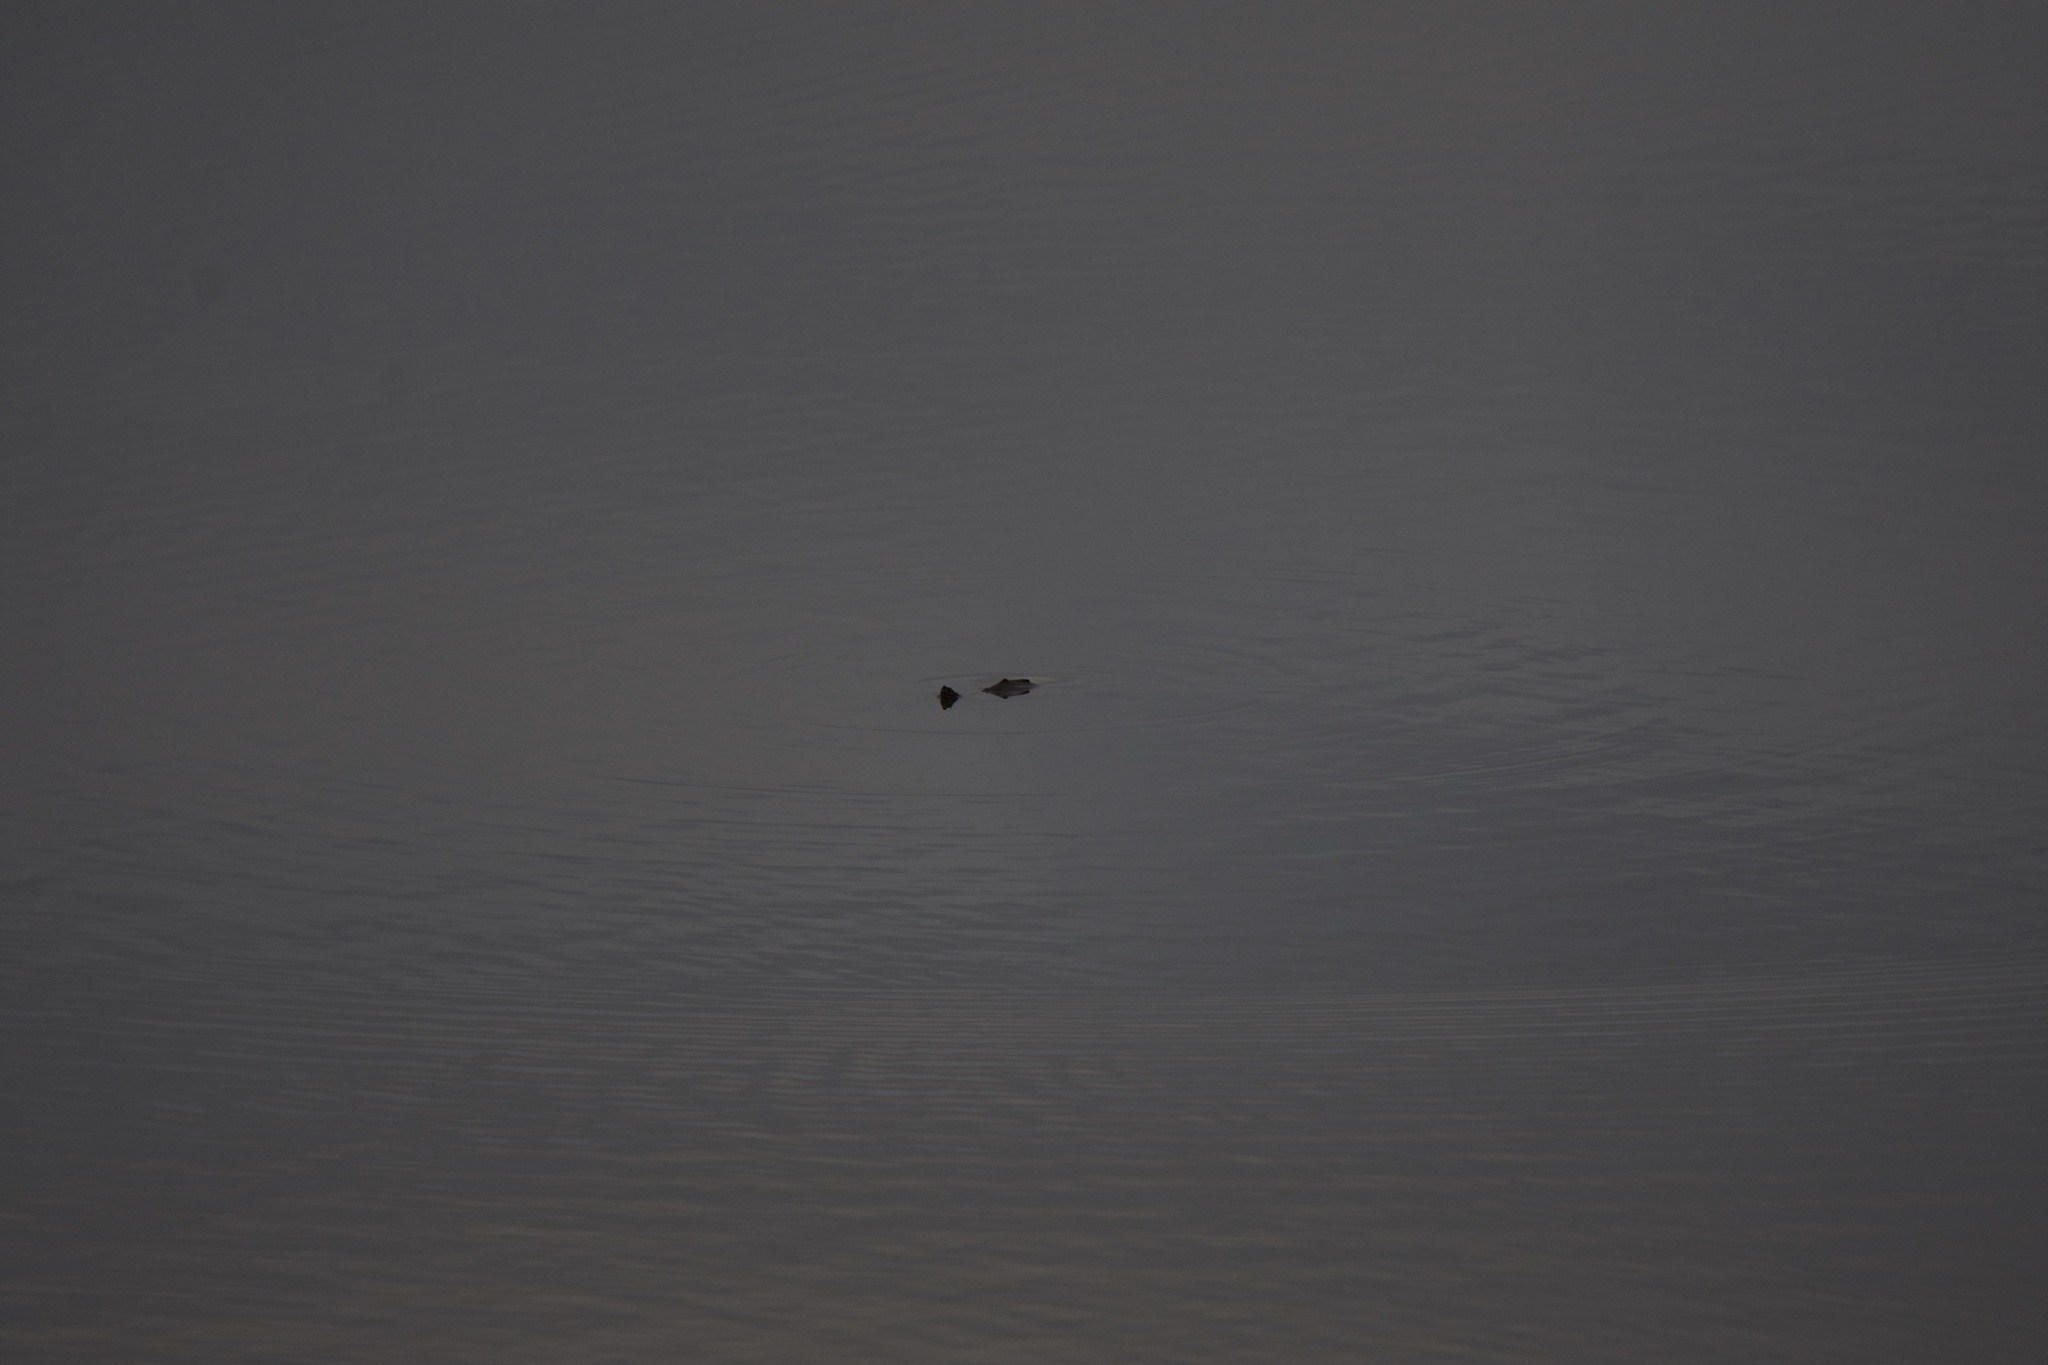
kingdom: Animalia
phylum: Chordata
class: Testudines
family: Emydidae
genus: Graptemys
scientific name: Graptemys
